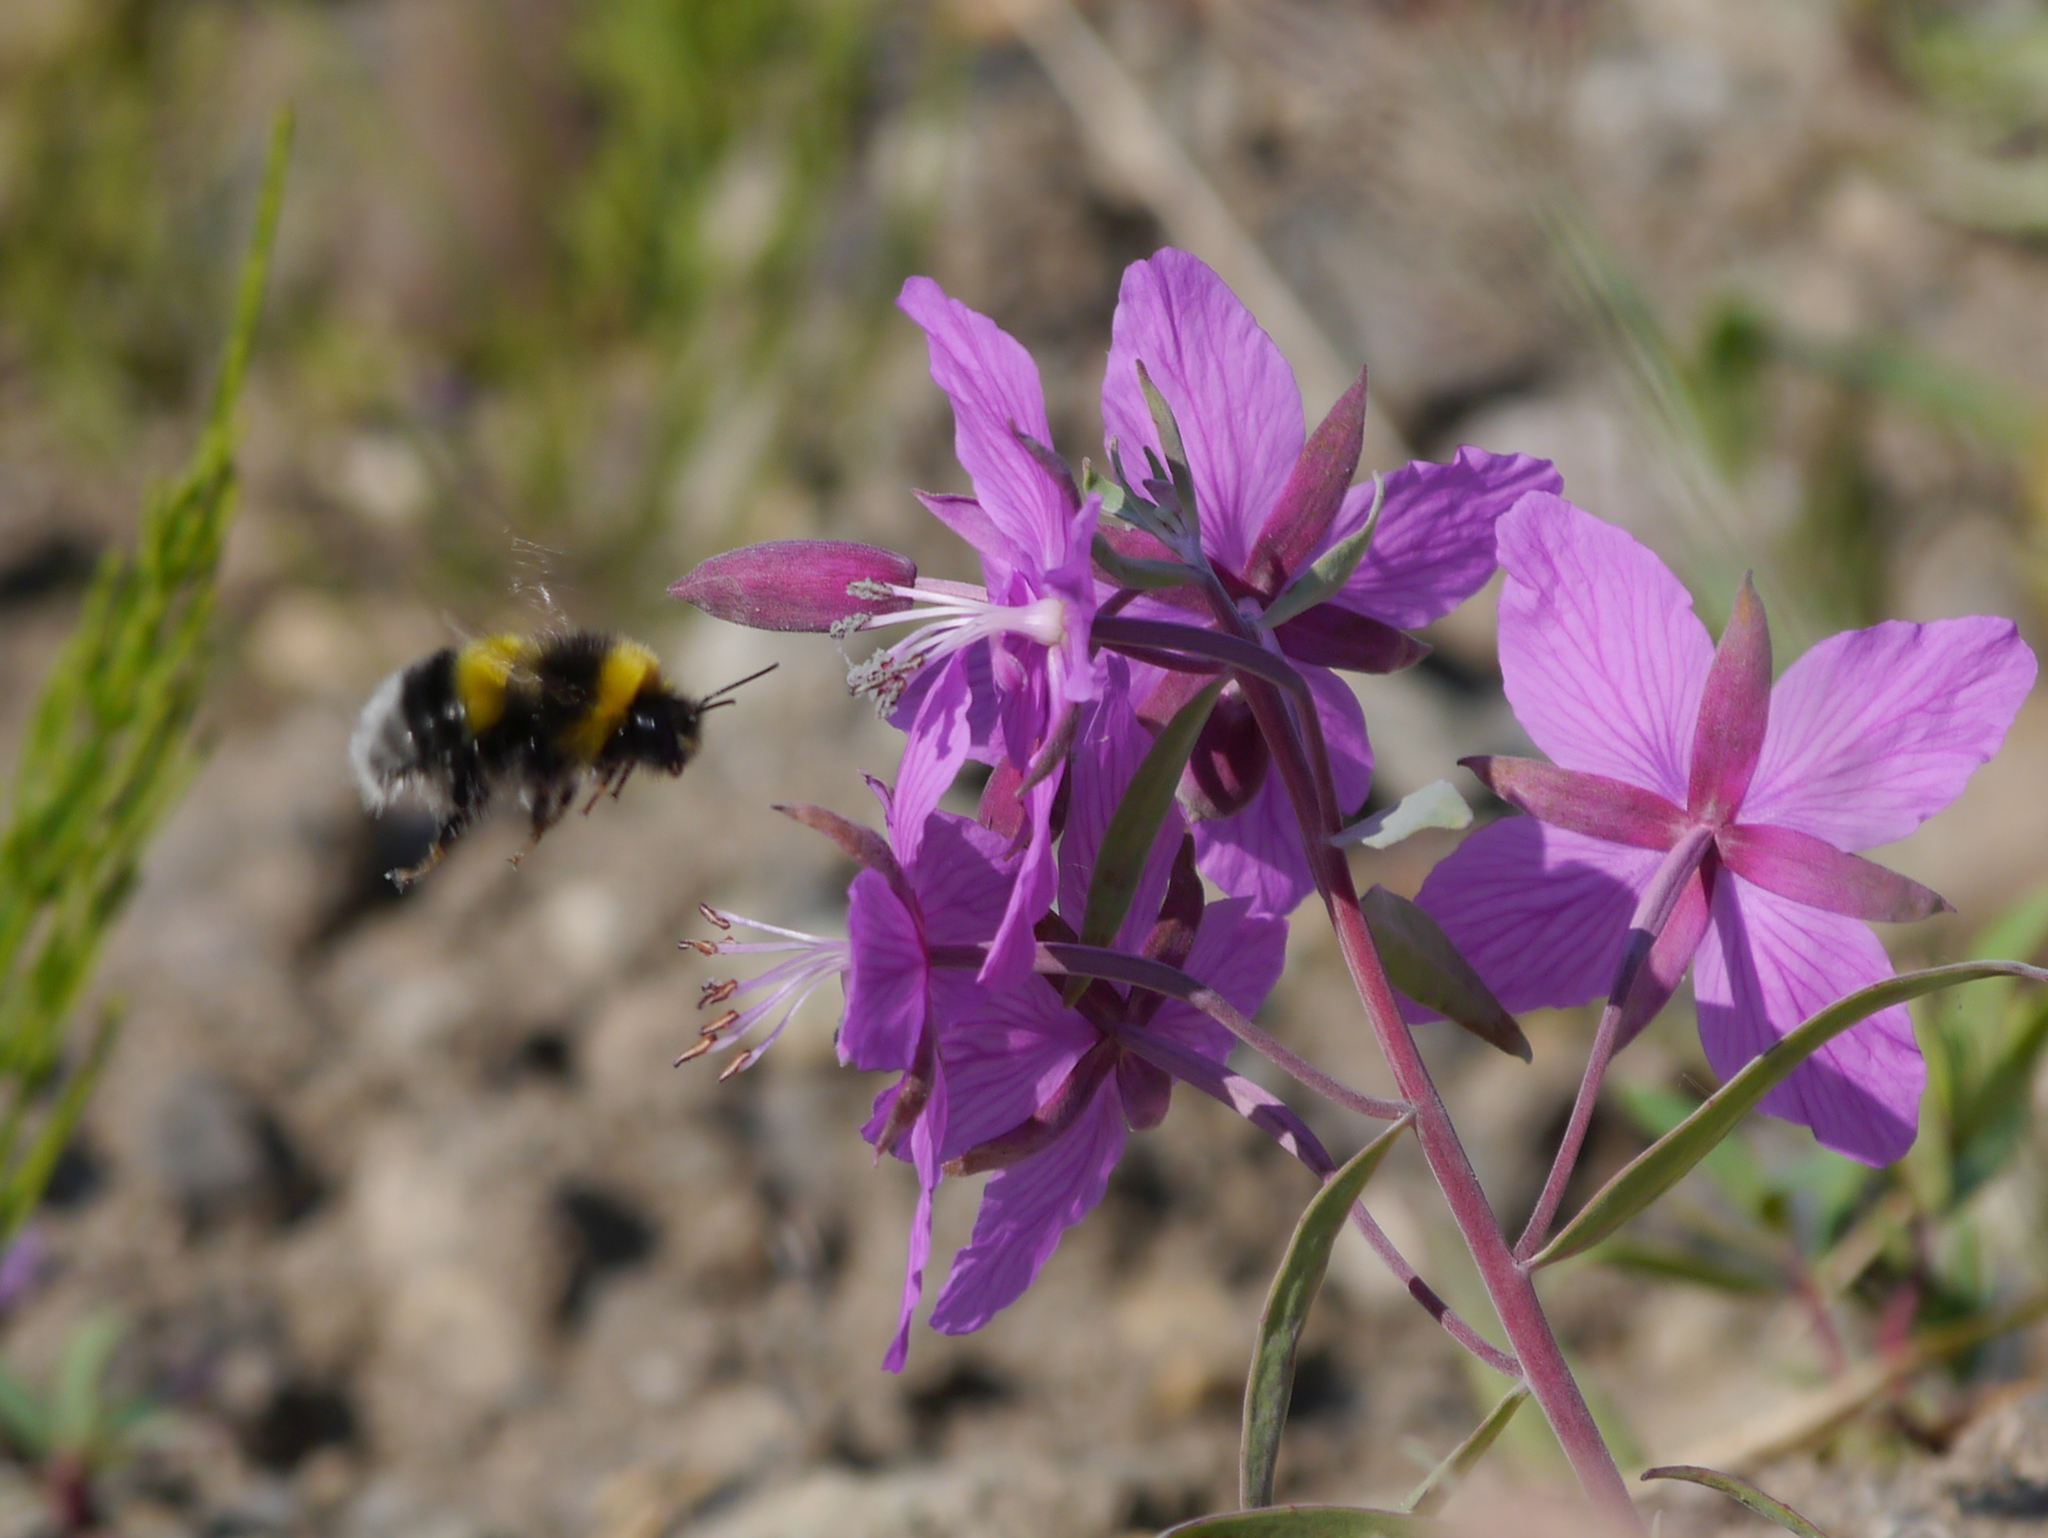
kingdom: Animalia
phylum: Arthropoda
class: Insecta
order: Hymenoptera
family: Apidae
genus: Bombus
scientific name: Bombus cryptarum
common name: Cryptic bumblebee
